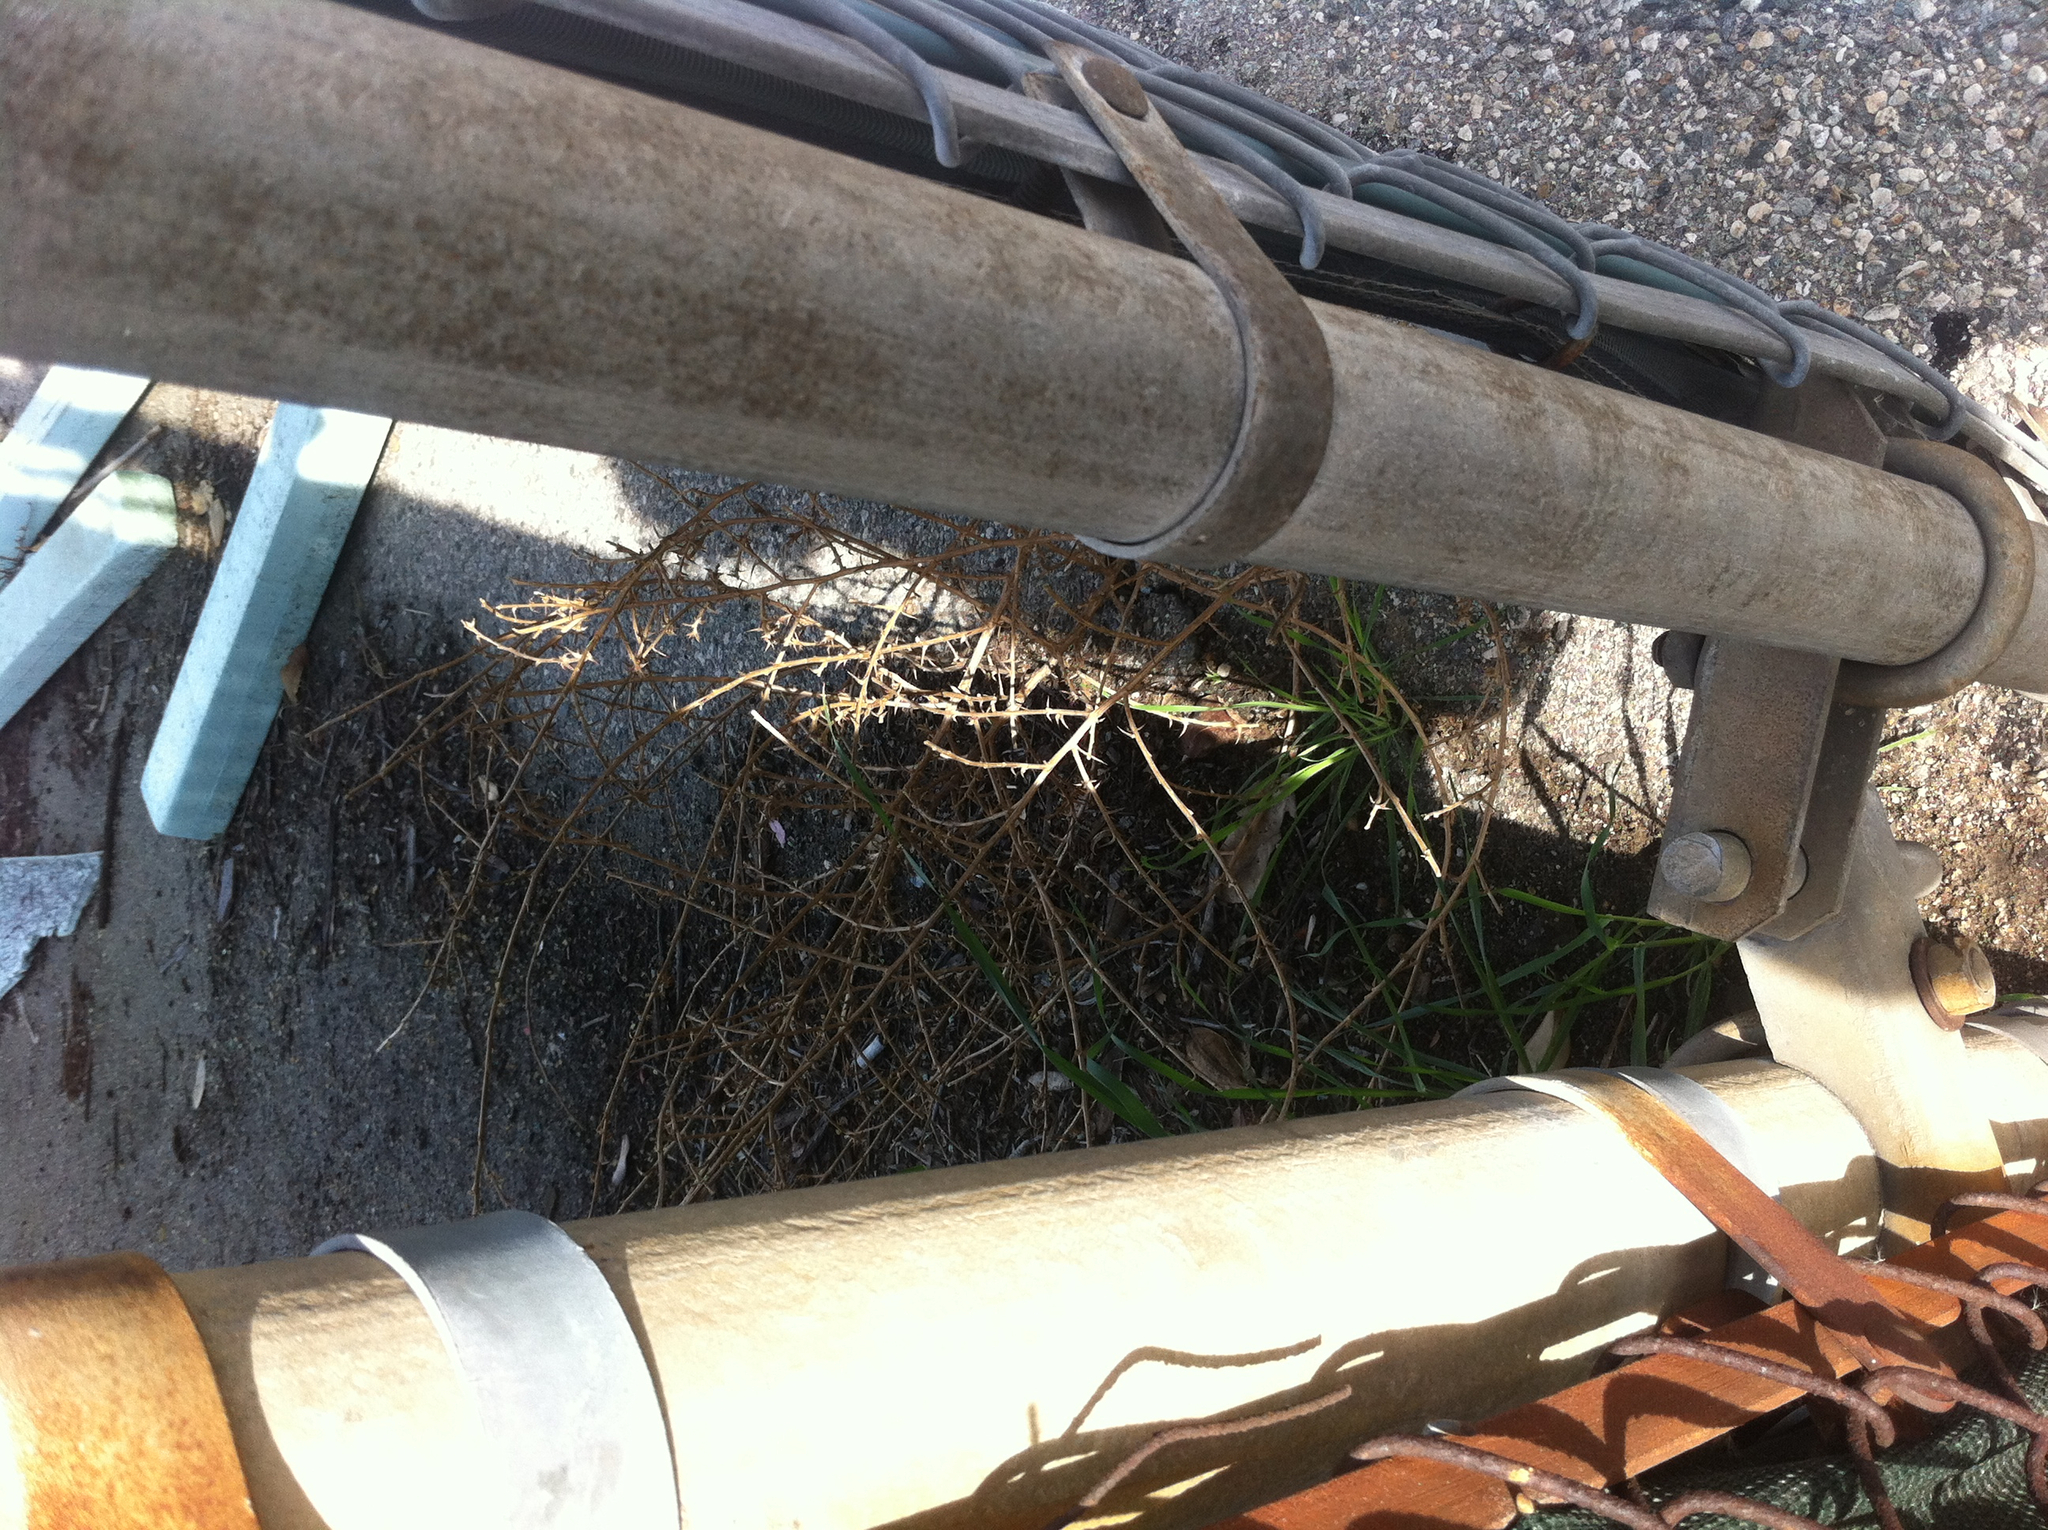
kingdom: Plantae
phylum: Tracheophyta
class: Magnoliopsida
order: Caryophyllales
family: Amaranthaceae
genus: Salsola
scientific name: Salsola
